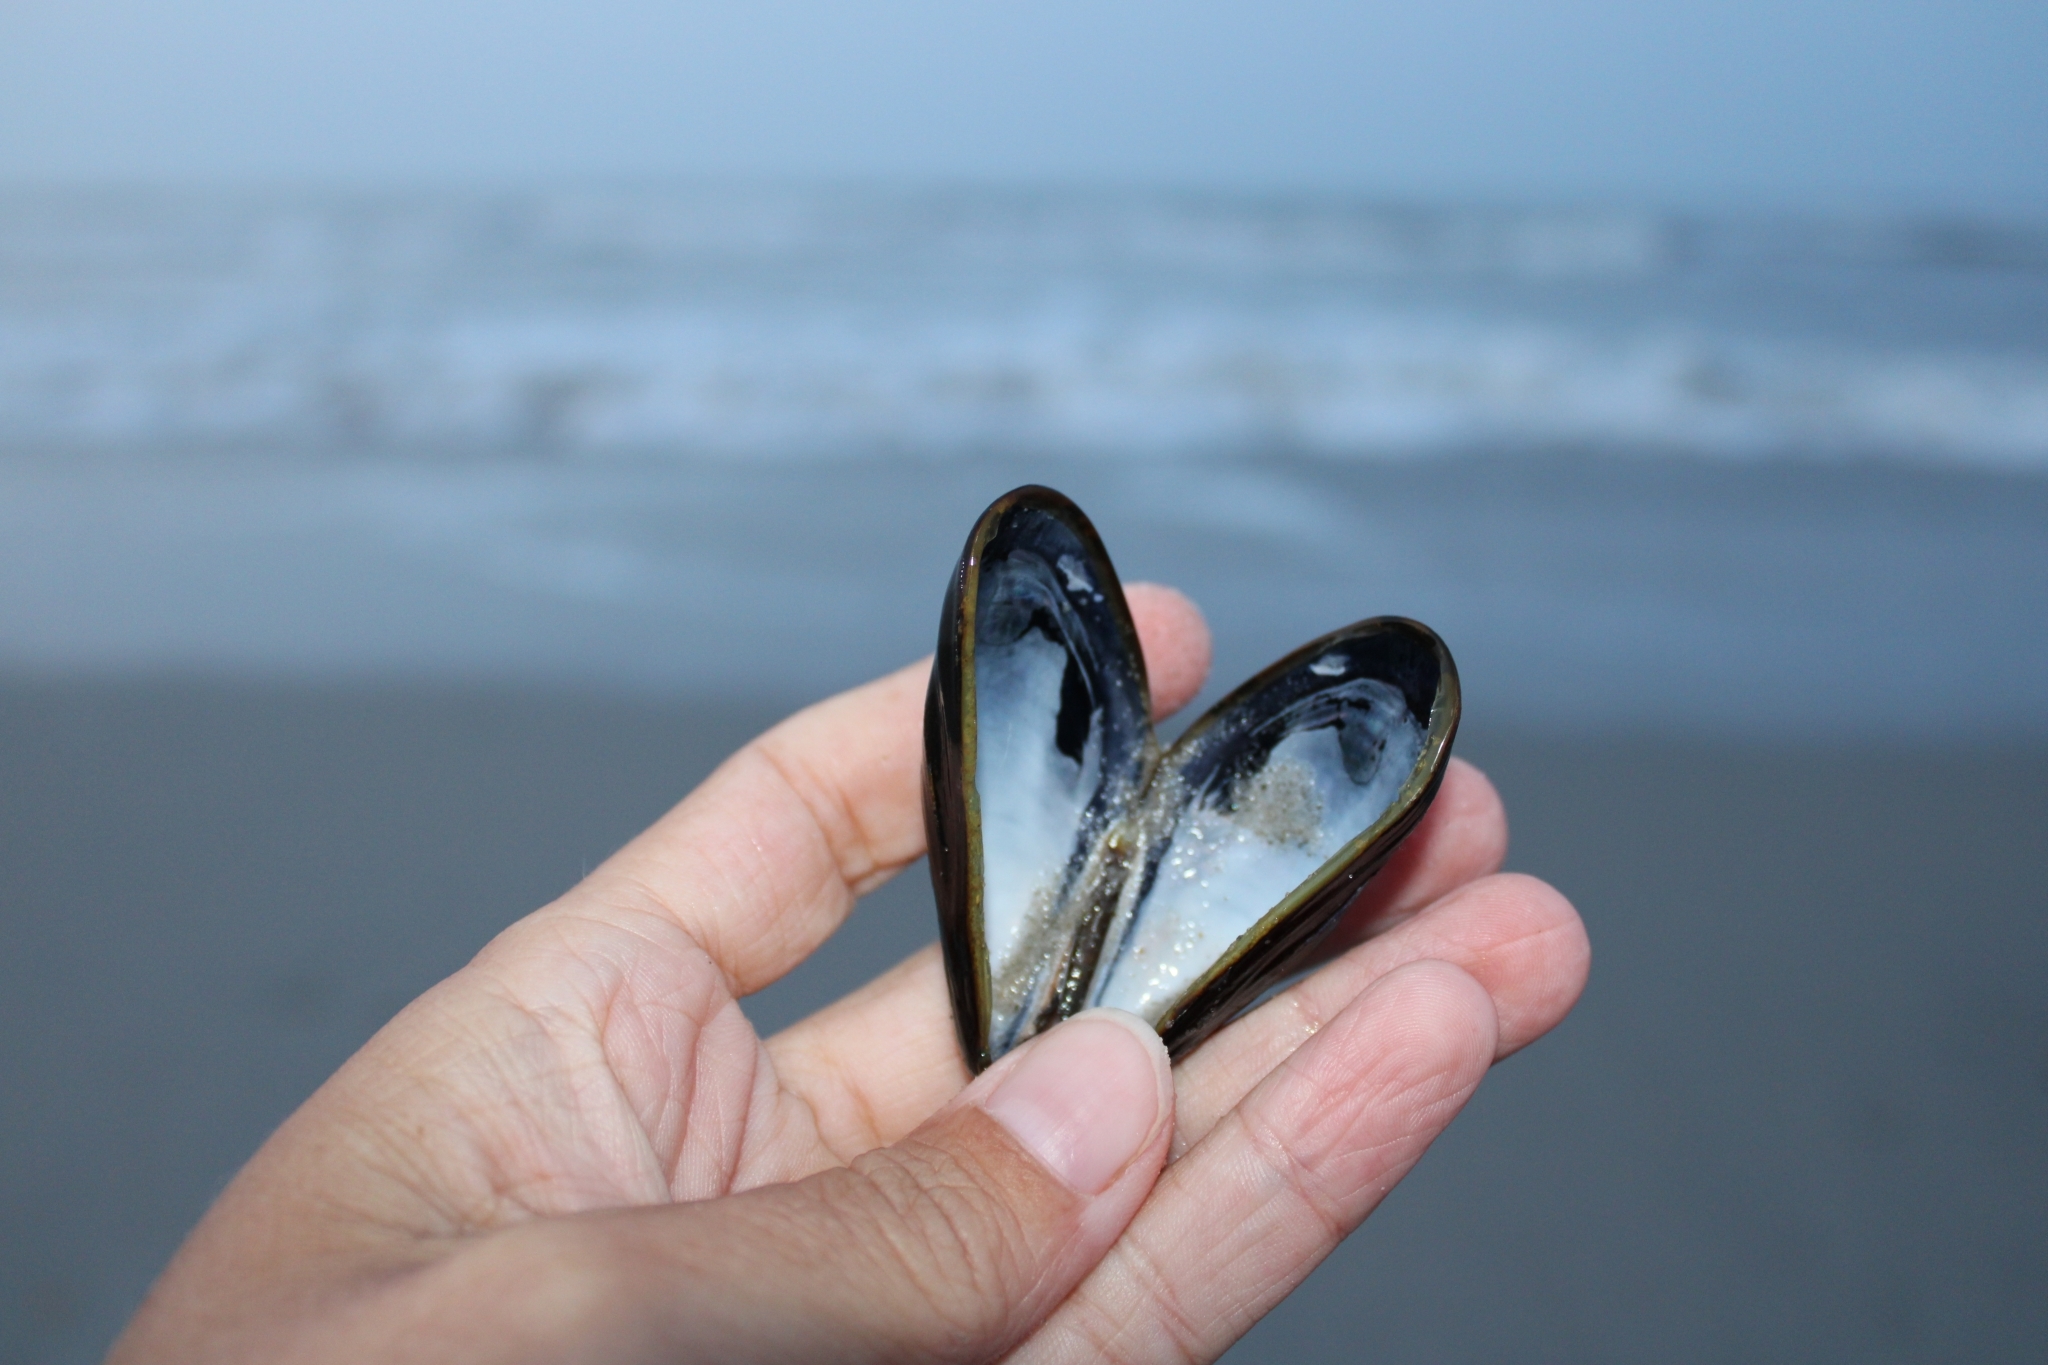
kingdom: Animalia
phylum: Mollusca
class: Bivalvia
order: Mytilida
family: Mytilidae
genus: Mytilus
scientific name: Mytilus edulis
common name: Blue mussel
